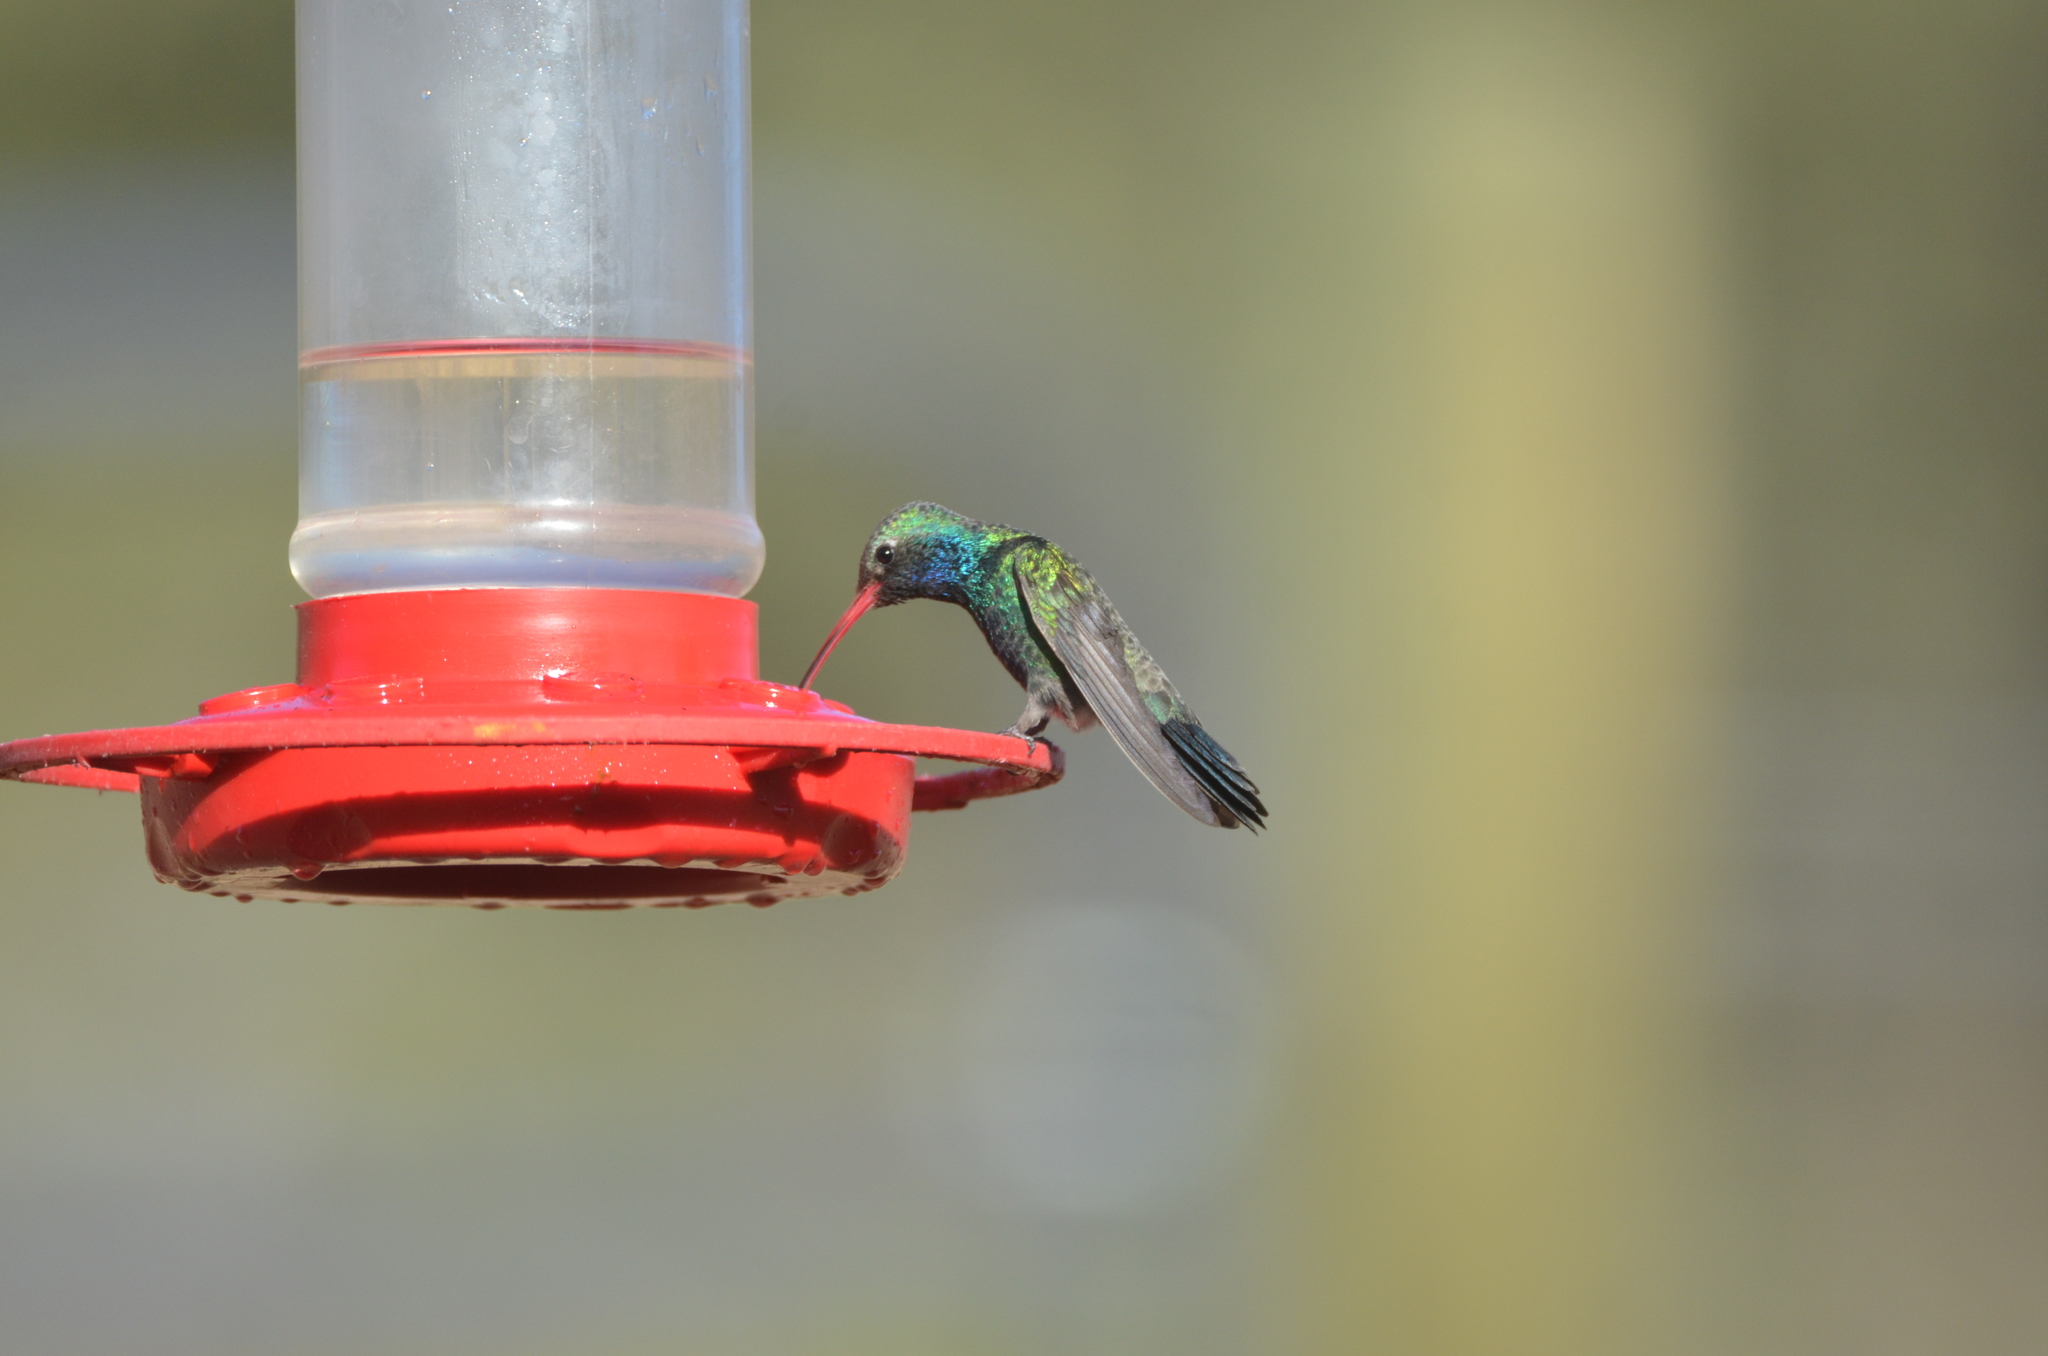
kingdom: Animalia
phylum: Chordata
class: Aves
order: Apodiformes
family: Trochilidae
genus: Cynanthus
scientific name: Cynanthus latirostris
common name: Broad-billed hummingbird
